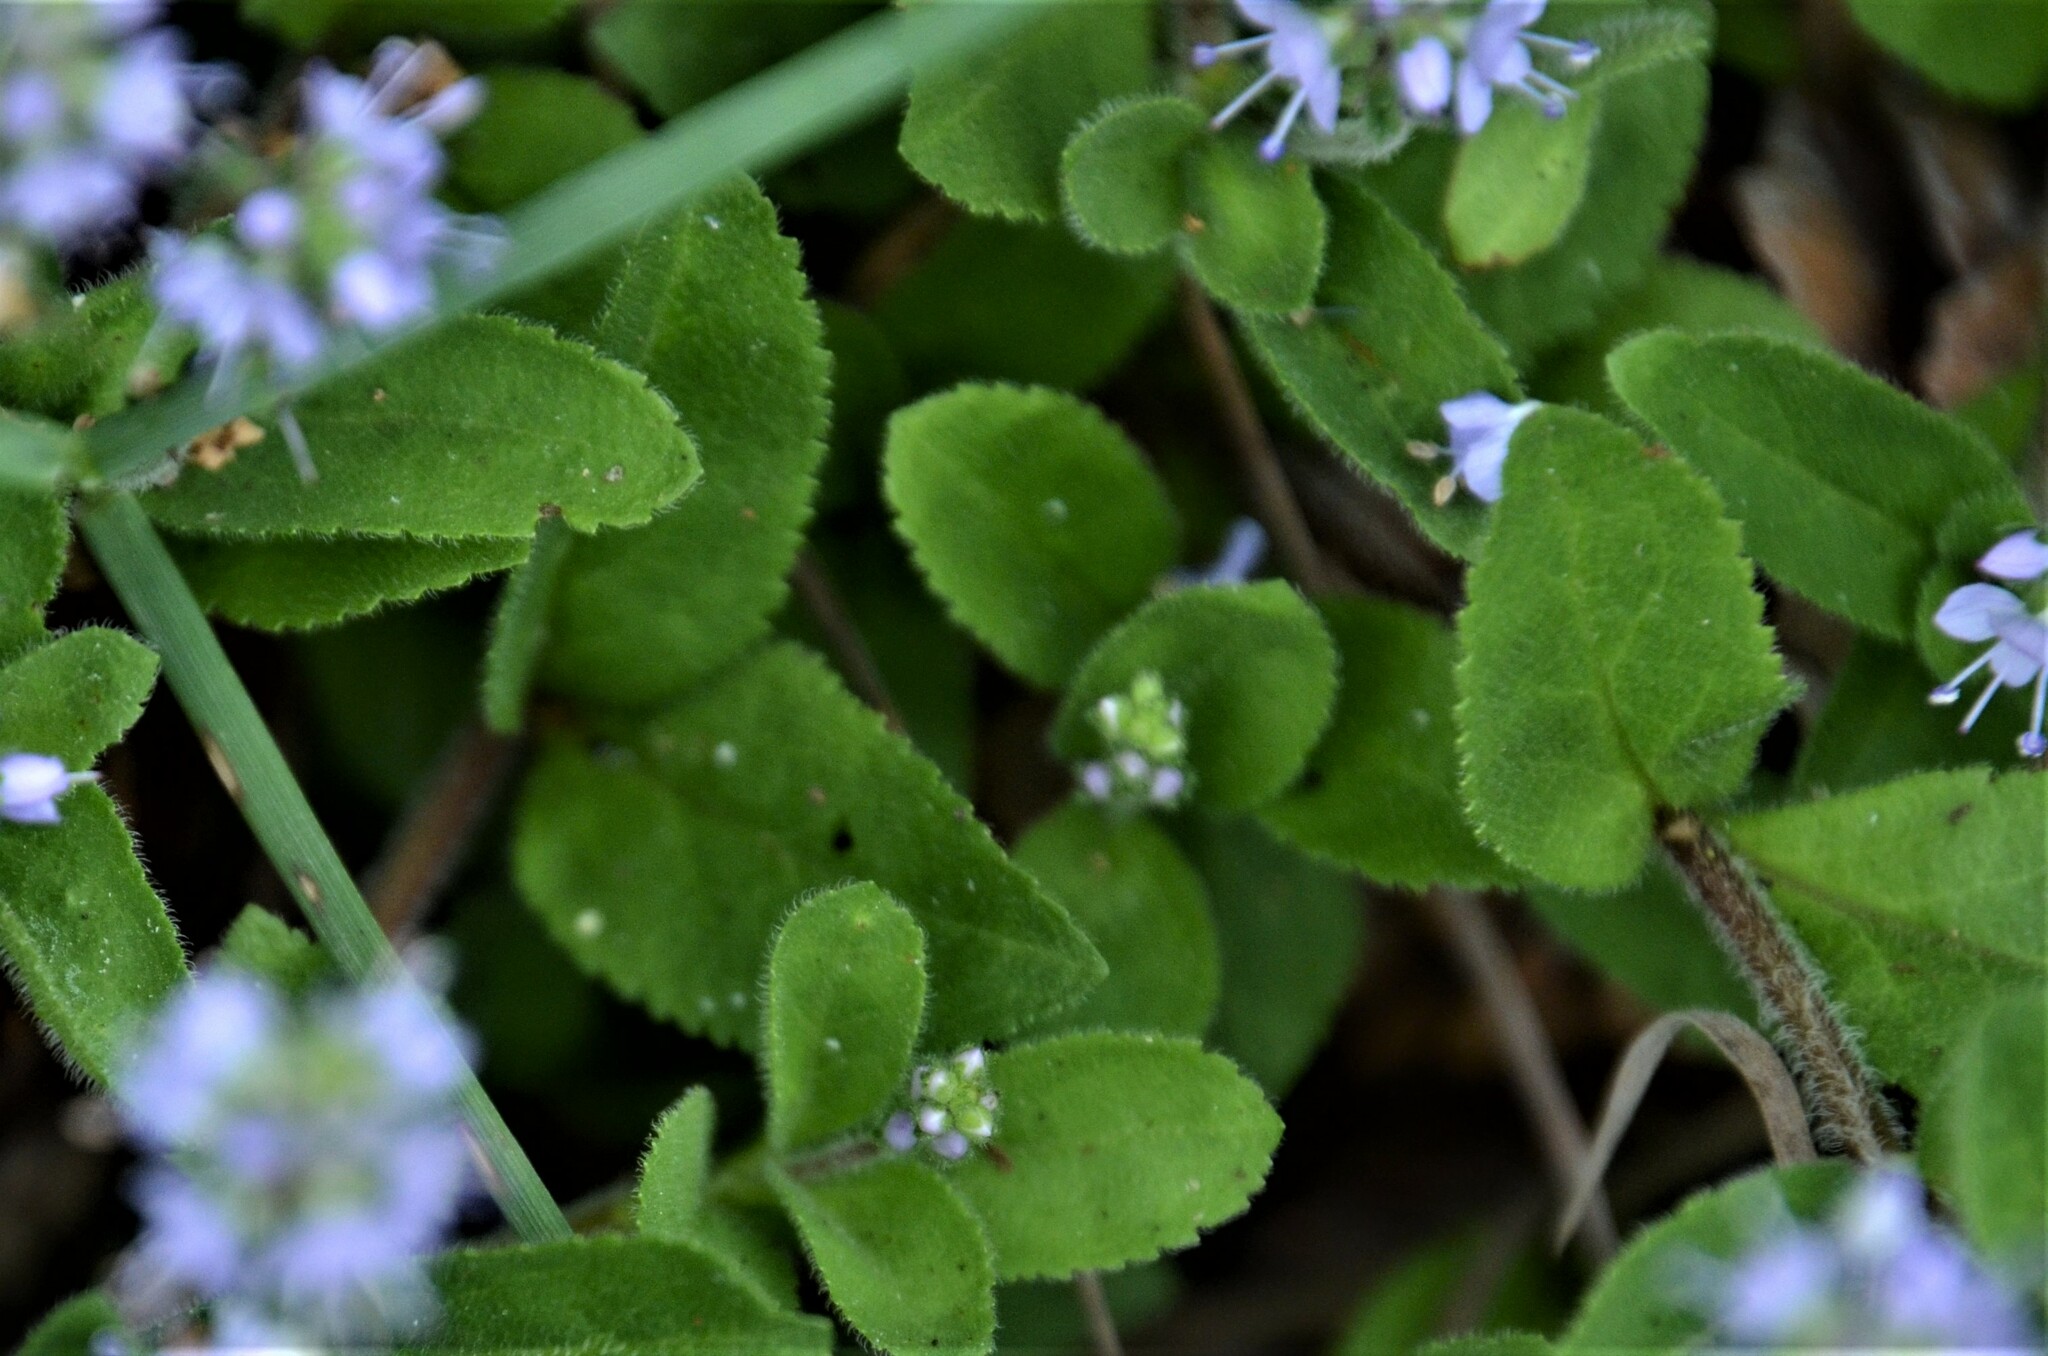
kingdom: Plantae
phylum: Tracheophyta
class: Magnoliopsida
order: Lamiales
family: Plantaginaceae
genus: Veronica
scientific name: Veronica officinalis
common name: Common speedwell
